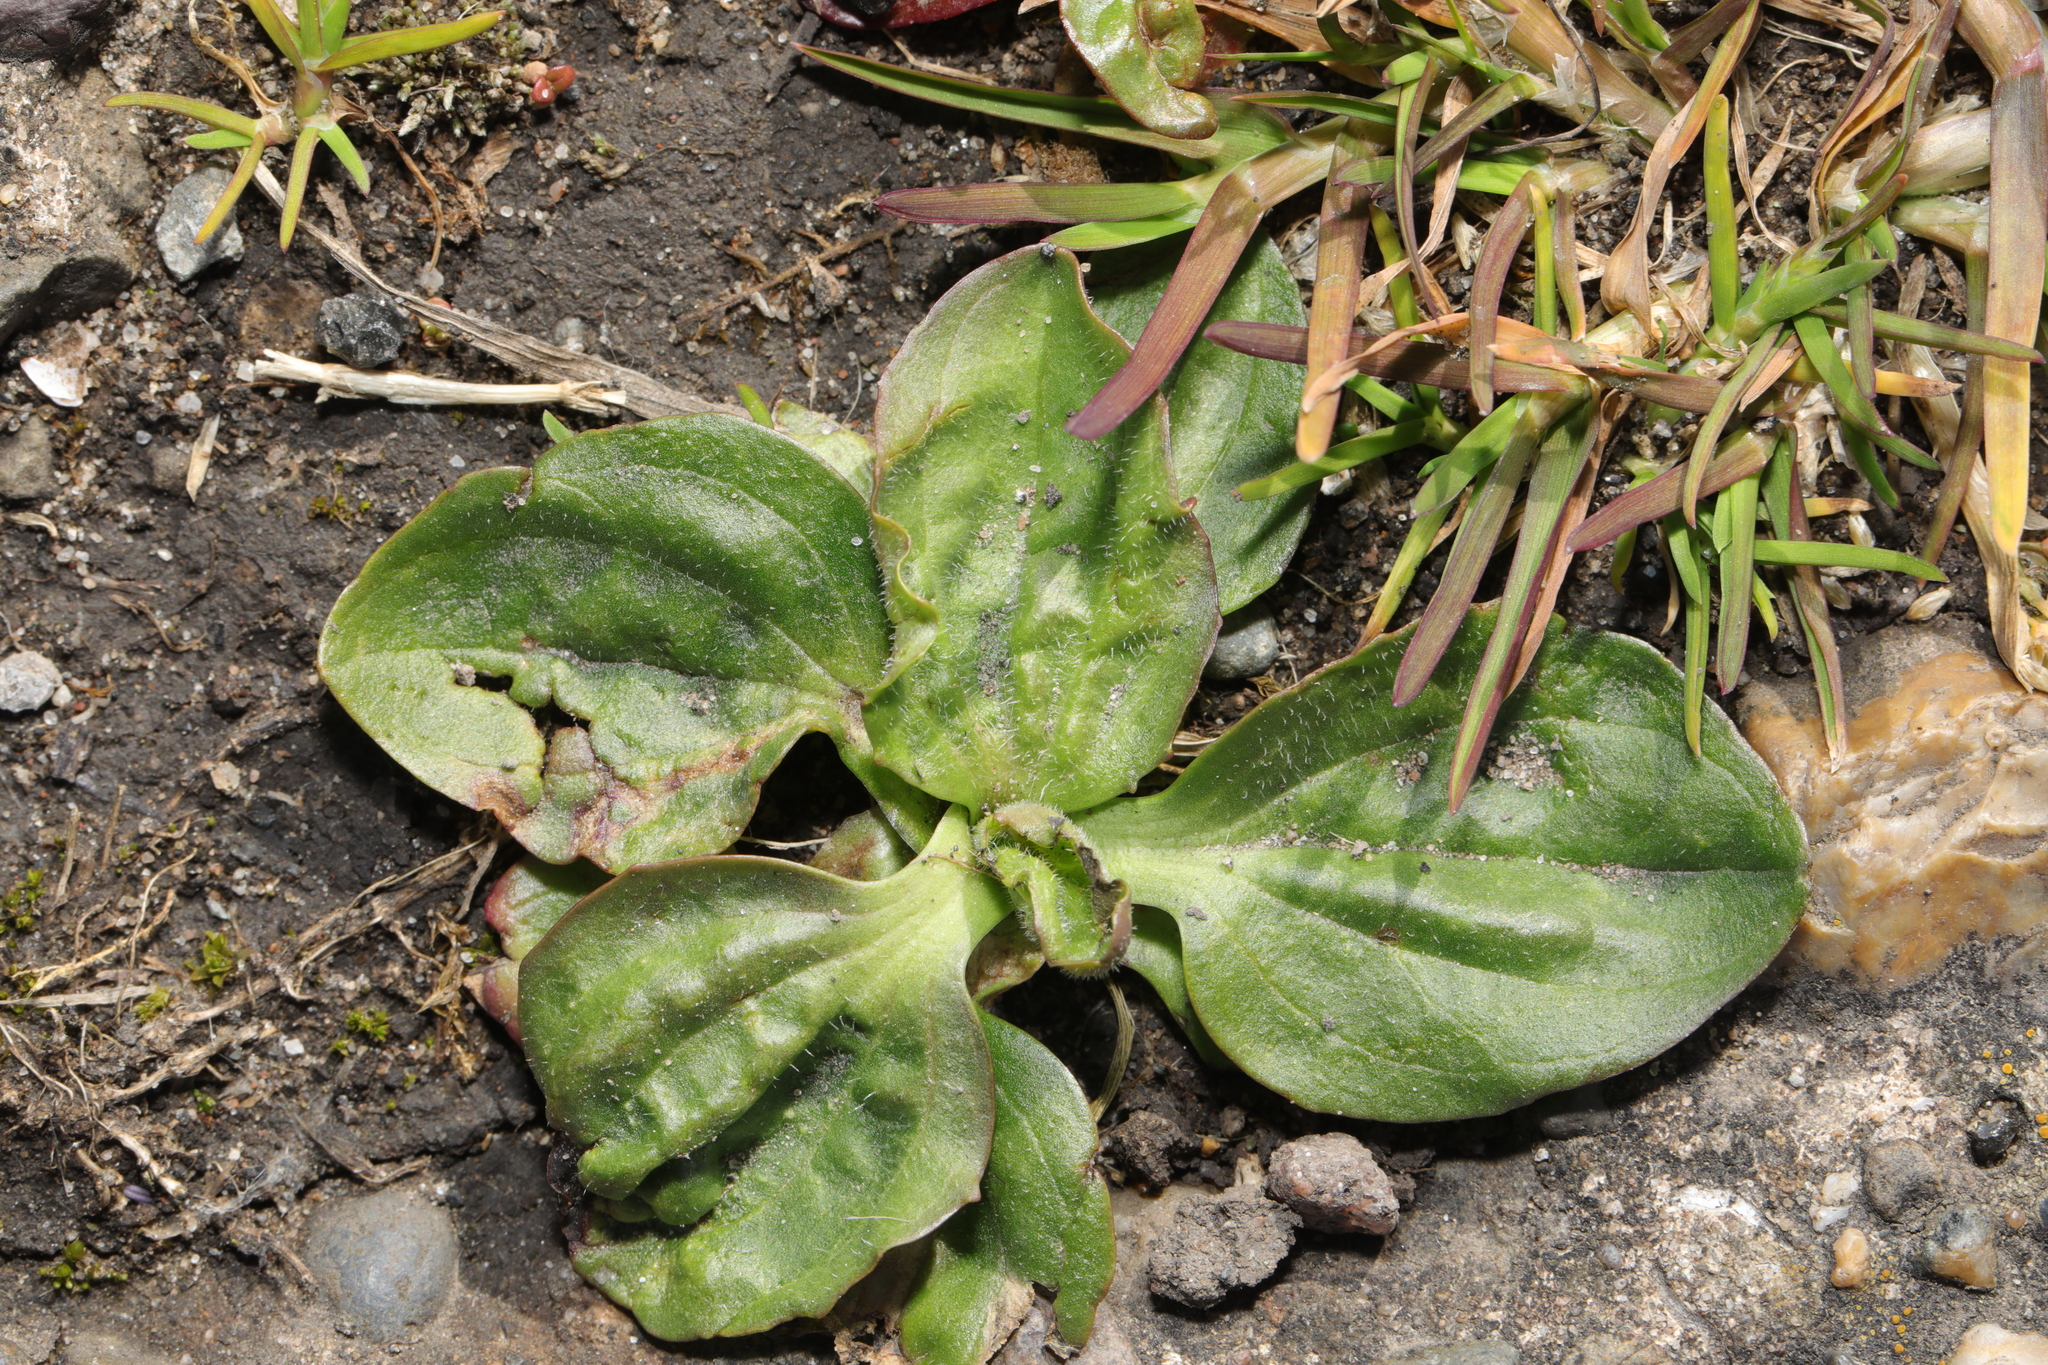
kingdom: Plantae
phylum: Tracheophyta
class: Magnoliopsida
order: Lamiales
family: Plantaginaceae
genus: Plantago
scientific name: Plantago major
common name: Common plantain
